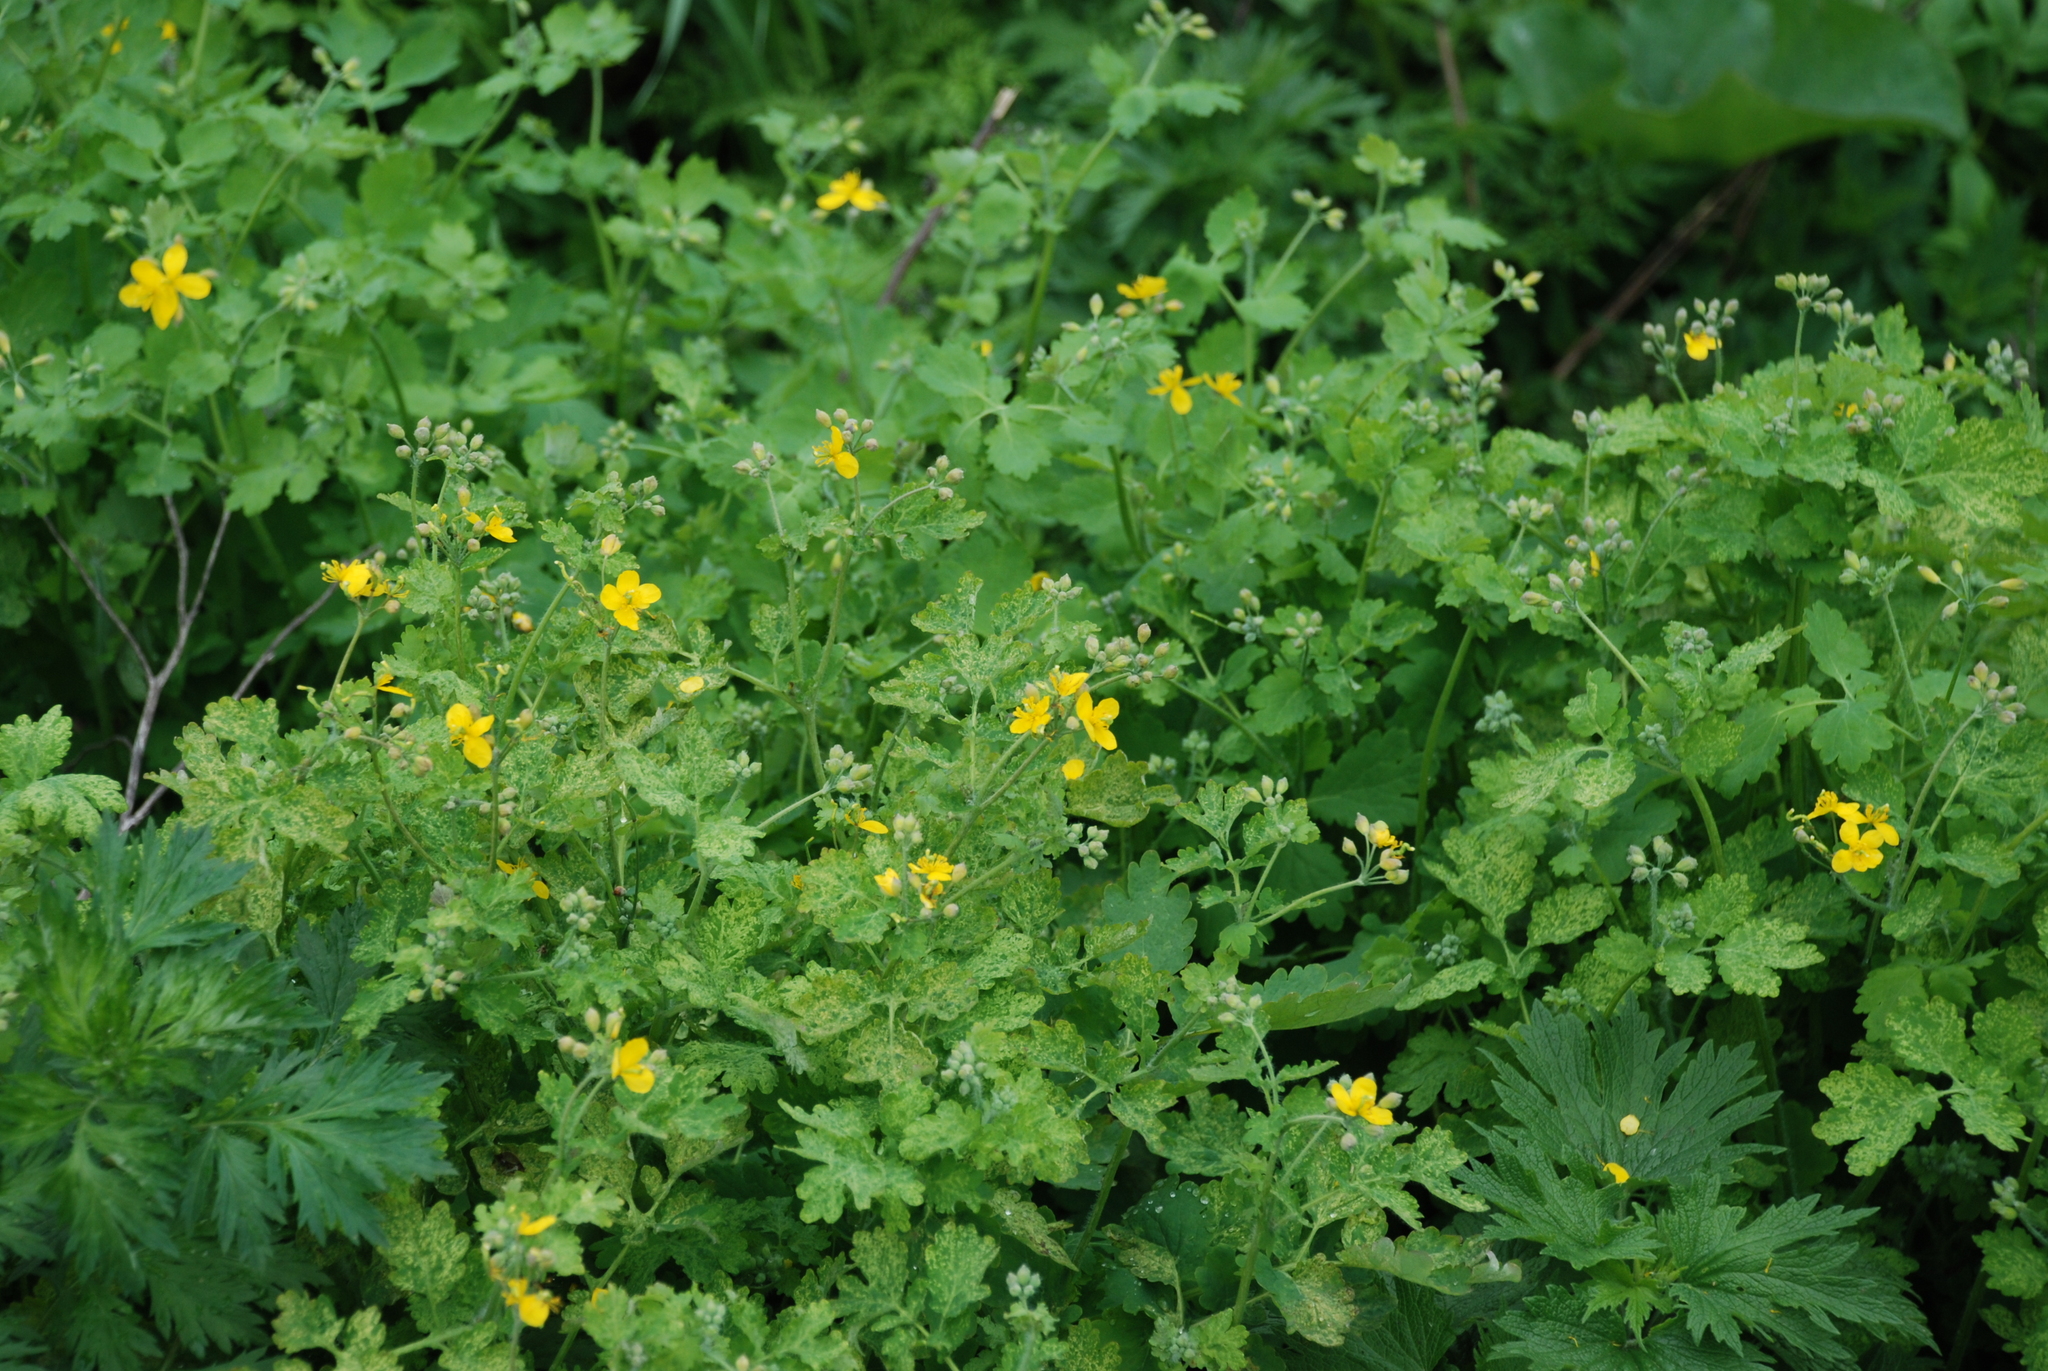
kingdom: Plantae
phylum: Tracheophyta
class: Magnoliopsida
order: Ranunculales
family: Papaveraceae
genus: Chelidonium
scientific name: Chelidonium majus
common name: Greater celandine
